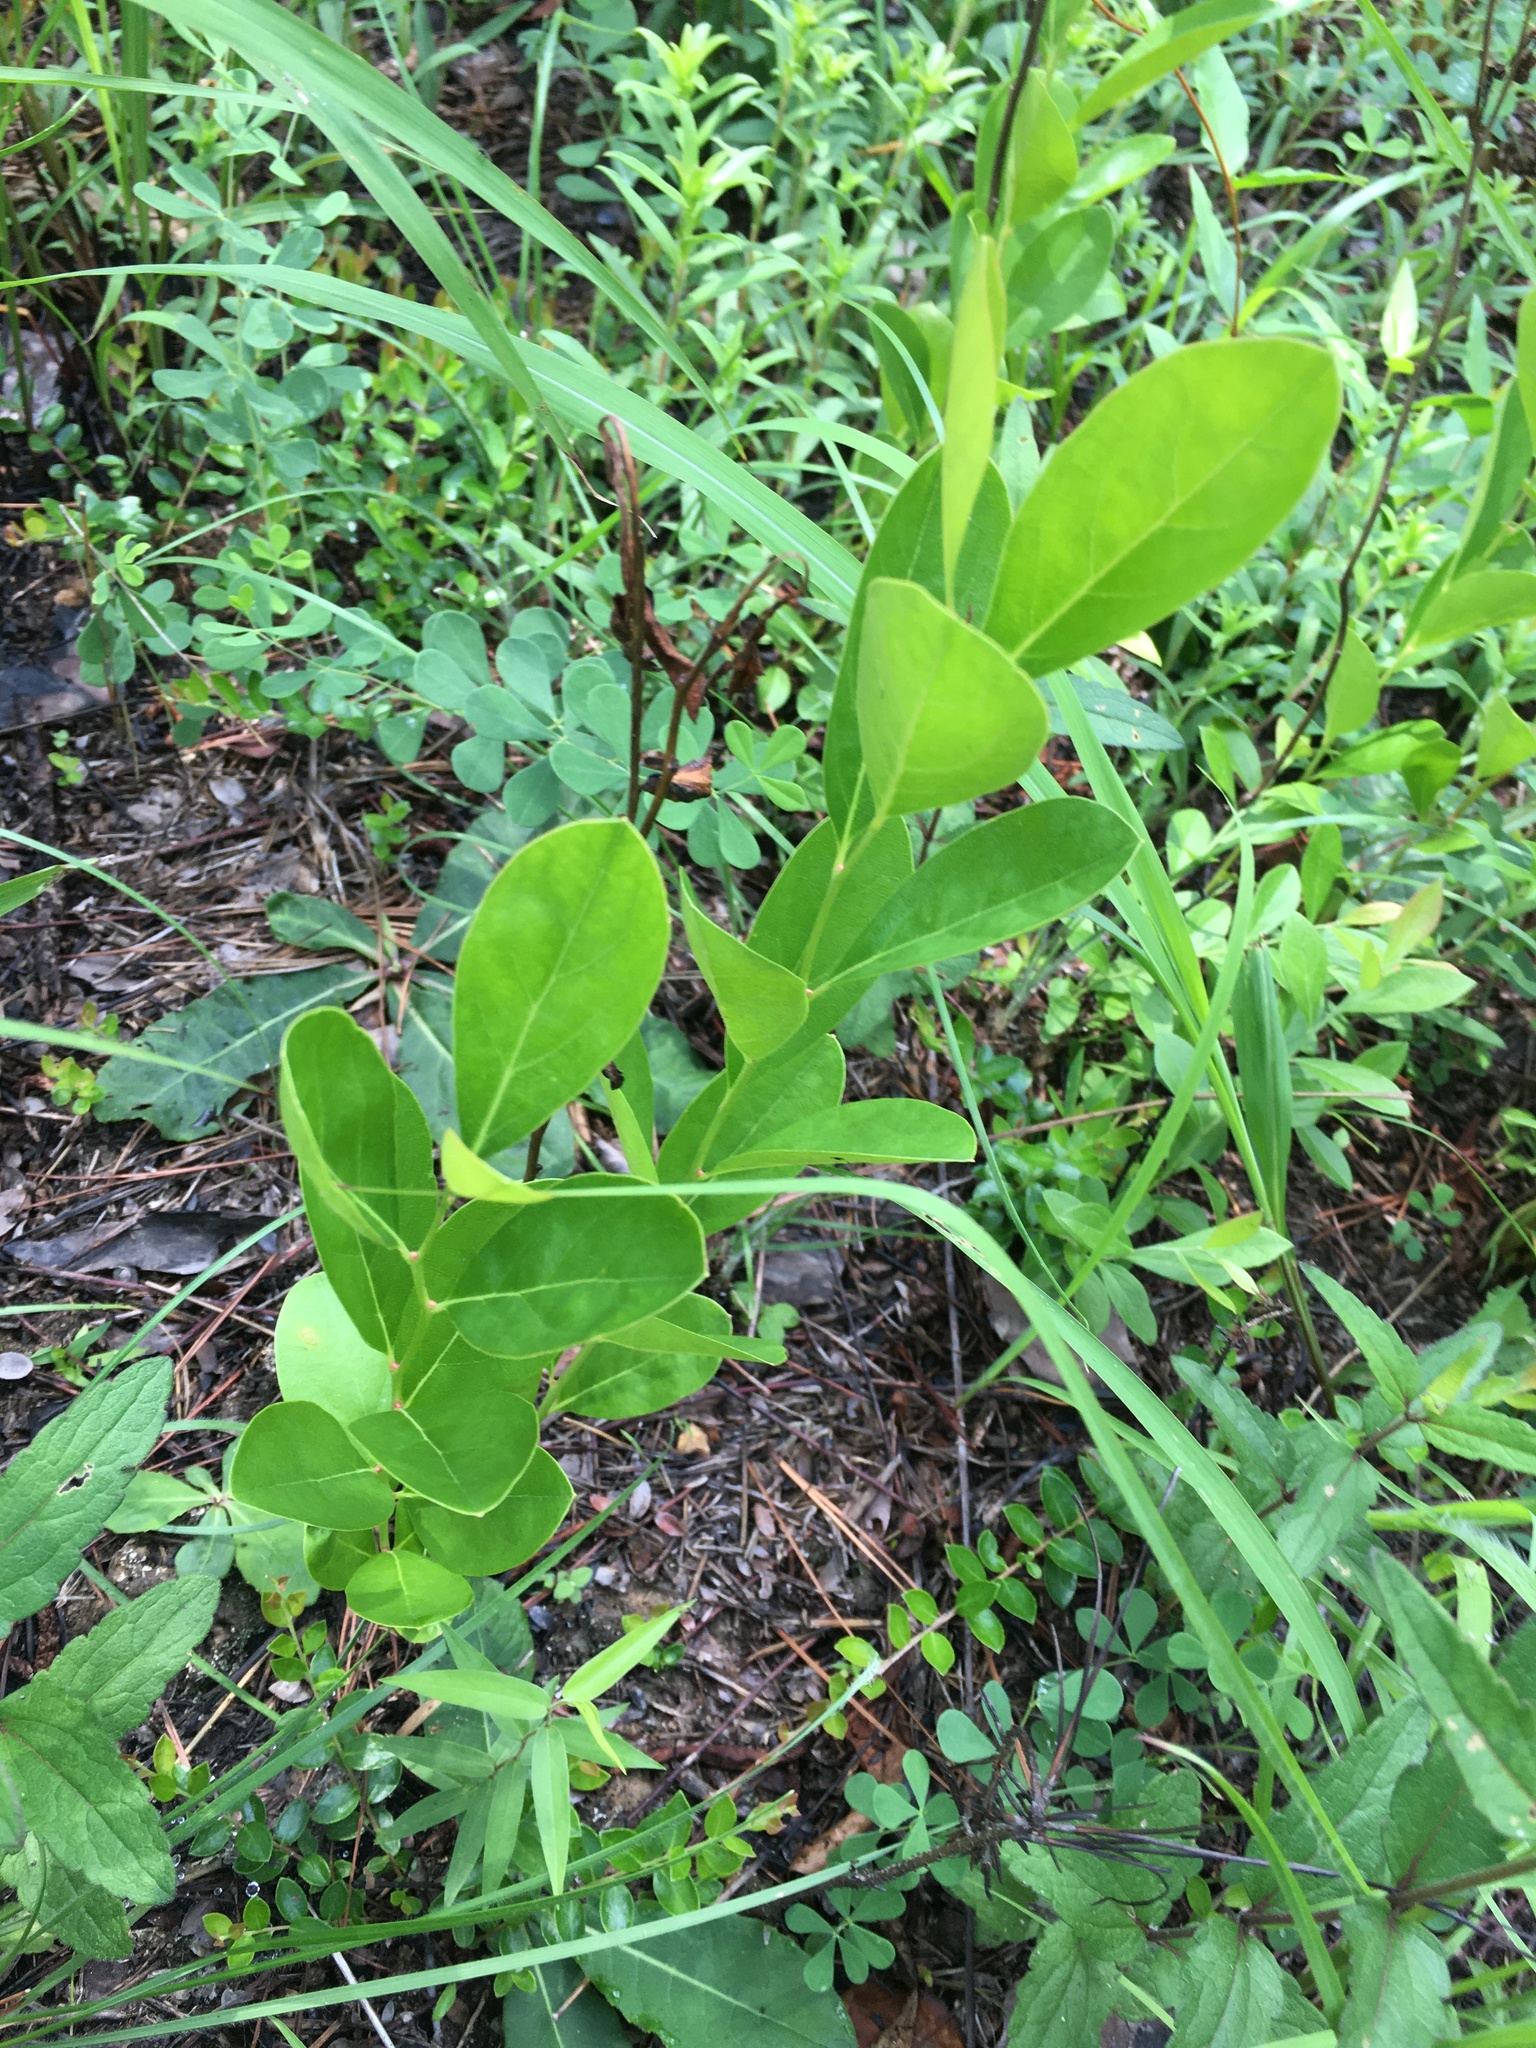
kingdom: Plantae
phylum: Tracheophyta
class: Magnoliopsida
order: Ericales
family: Ericaceae
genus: Lyonia
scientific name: Lyonia mariana
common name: Staggerbush
